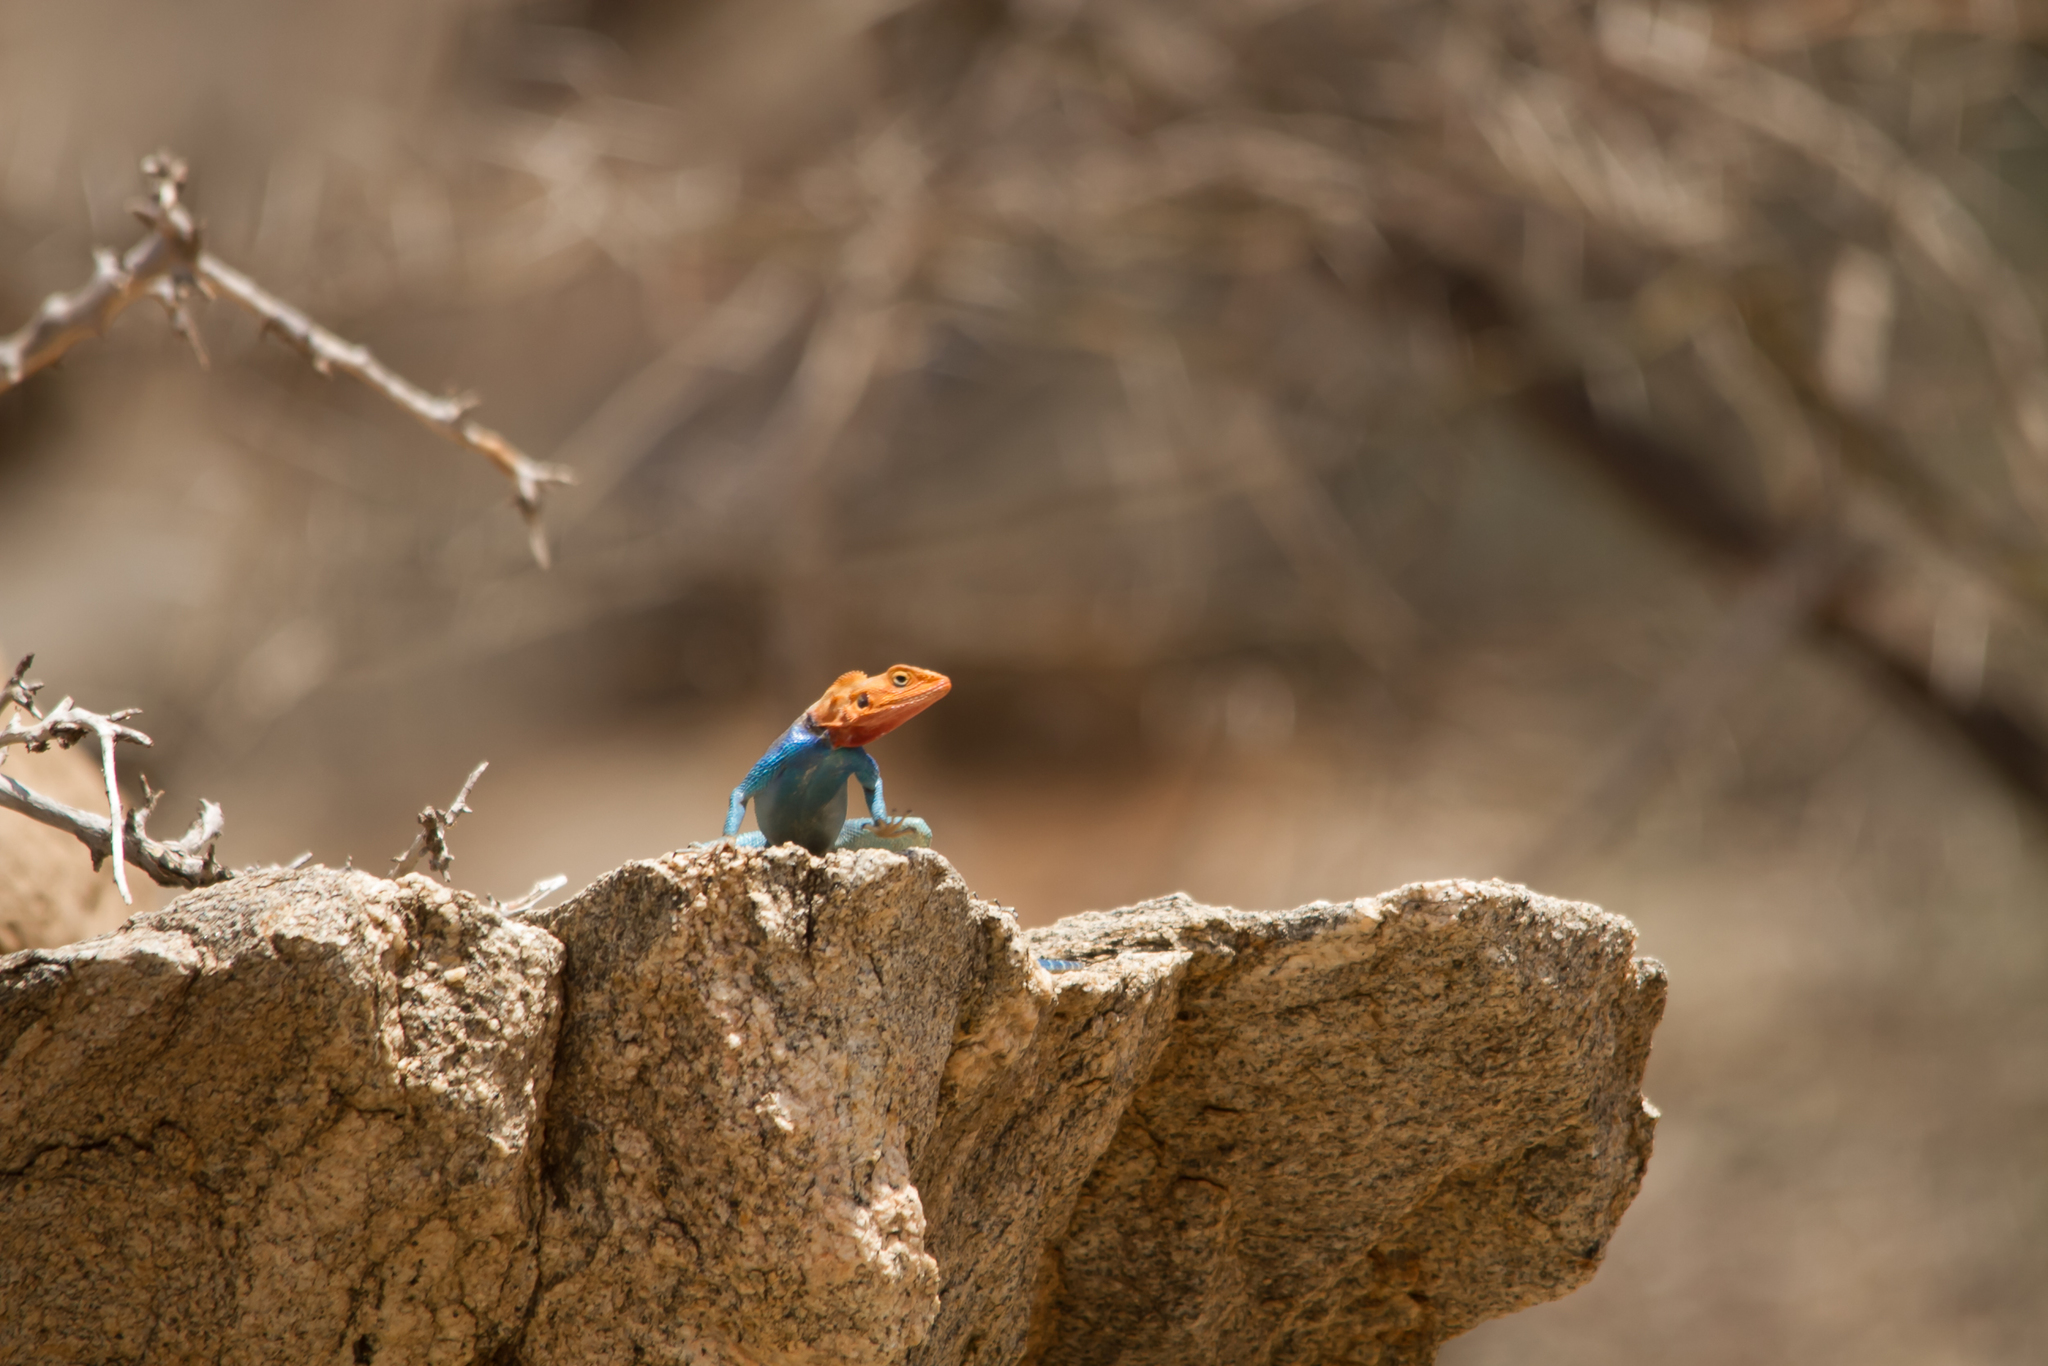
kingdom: Animalia
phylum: Chordata
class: Squamata
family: Agamidae
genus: Agama
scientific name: Agama lionotus
